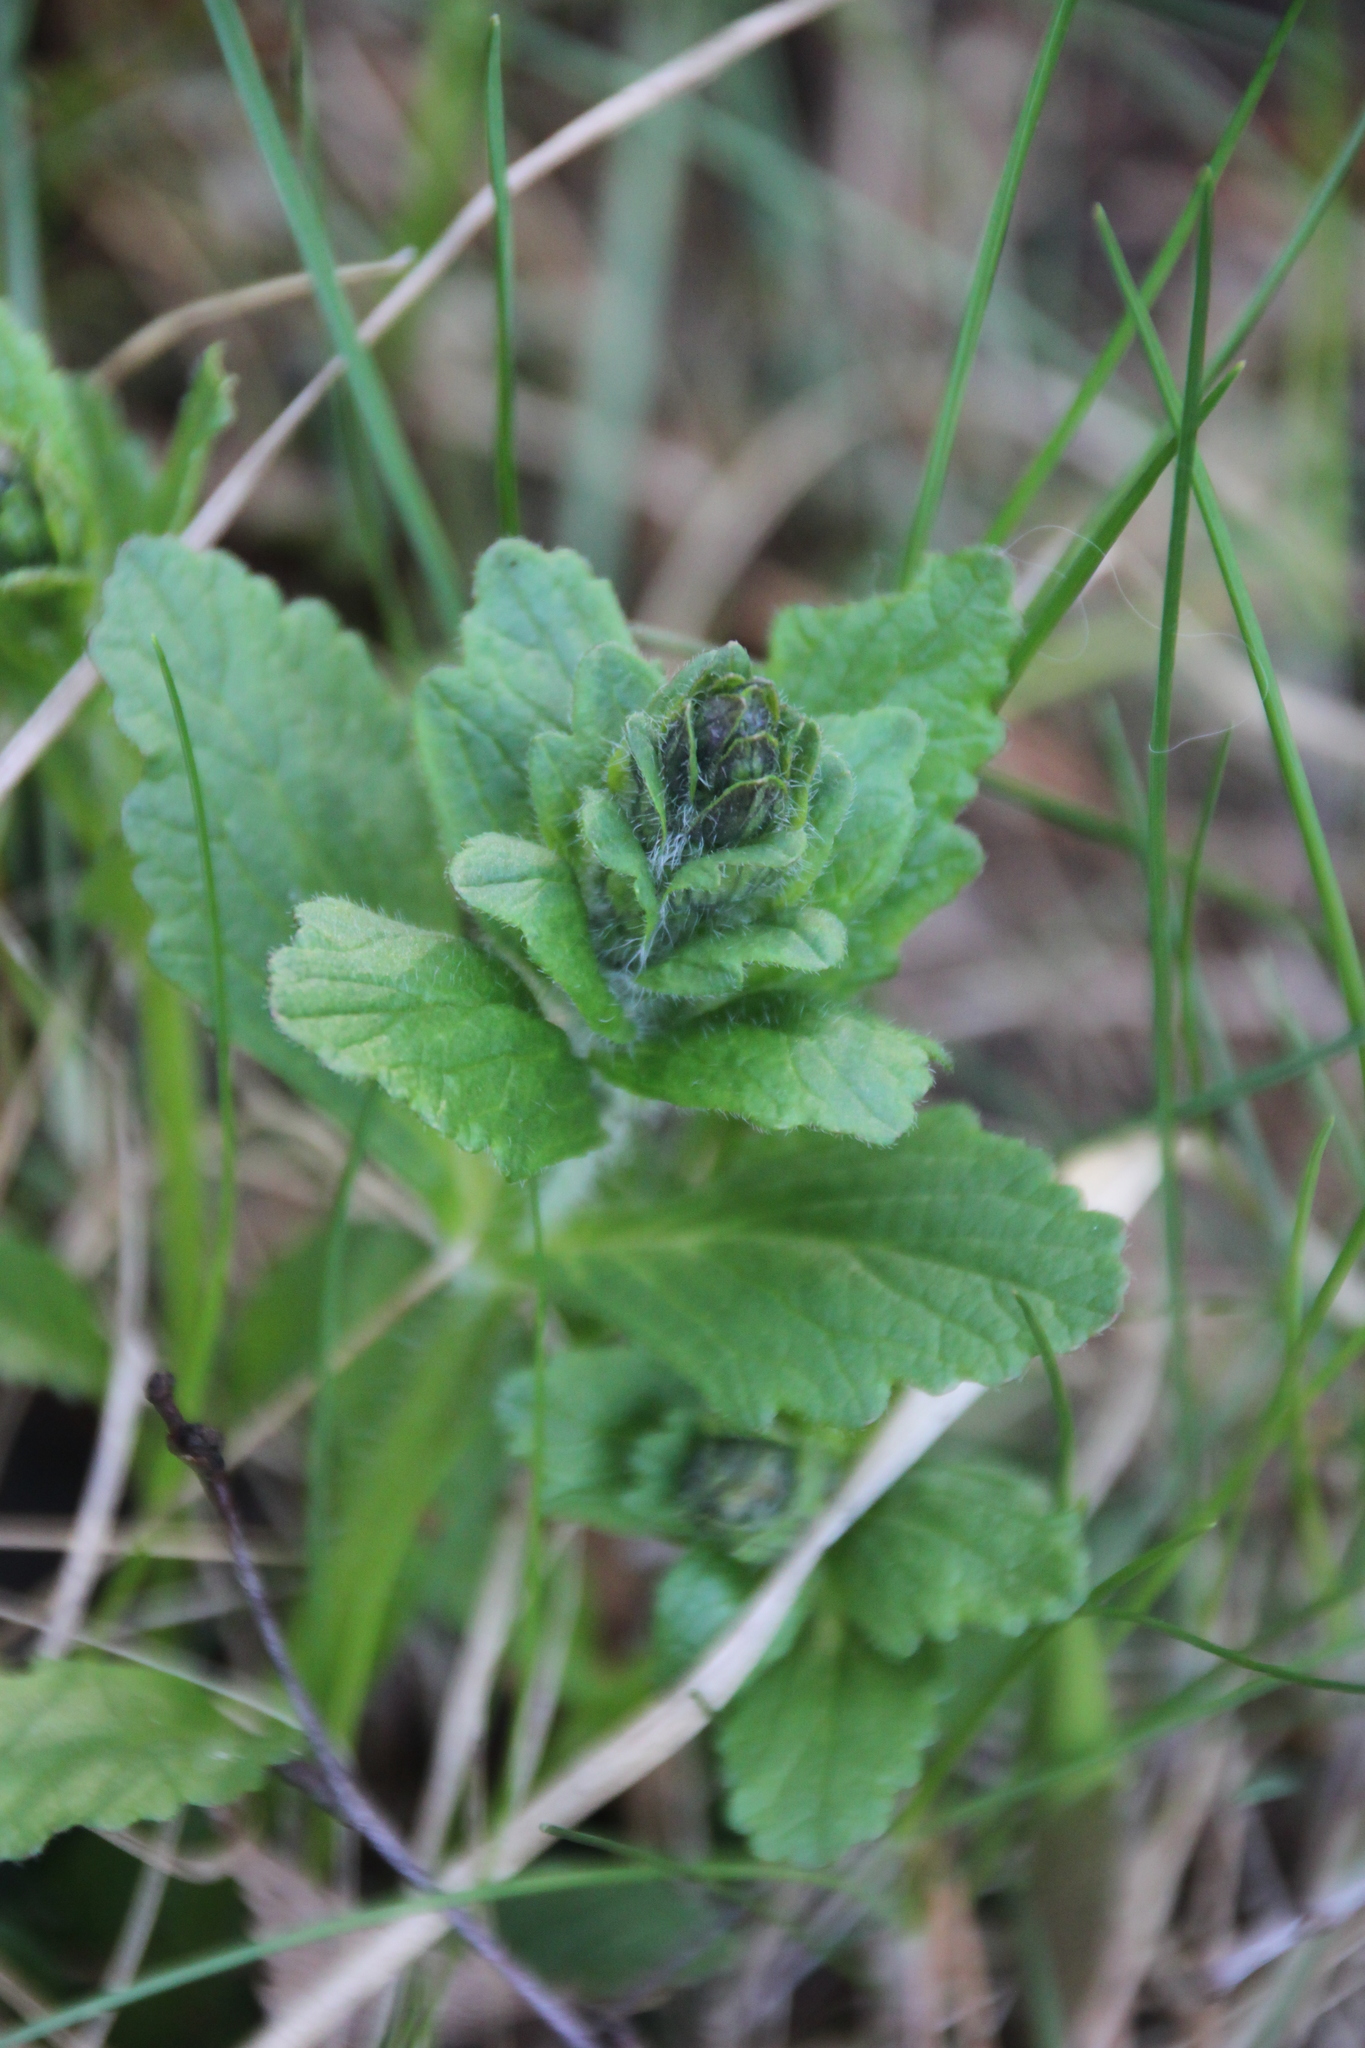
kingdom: Plantae
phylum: Tracheophyta
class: Magnoliopsida
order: Lamiales
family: Lamiaceae
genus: Ajuga
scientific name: Ajuga reptans
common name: Bugle
